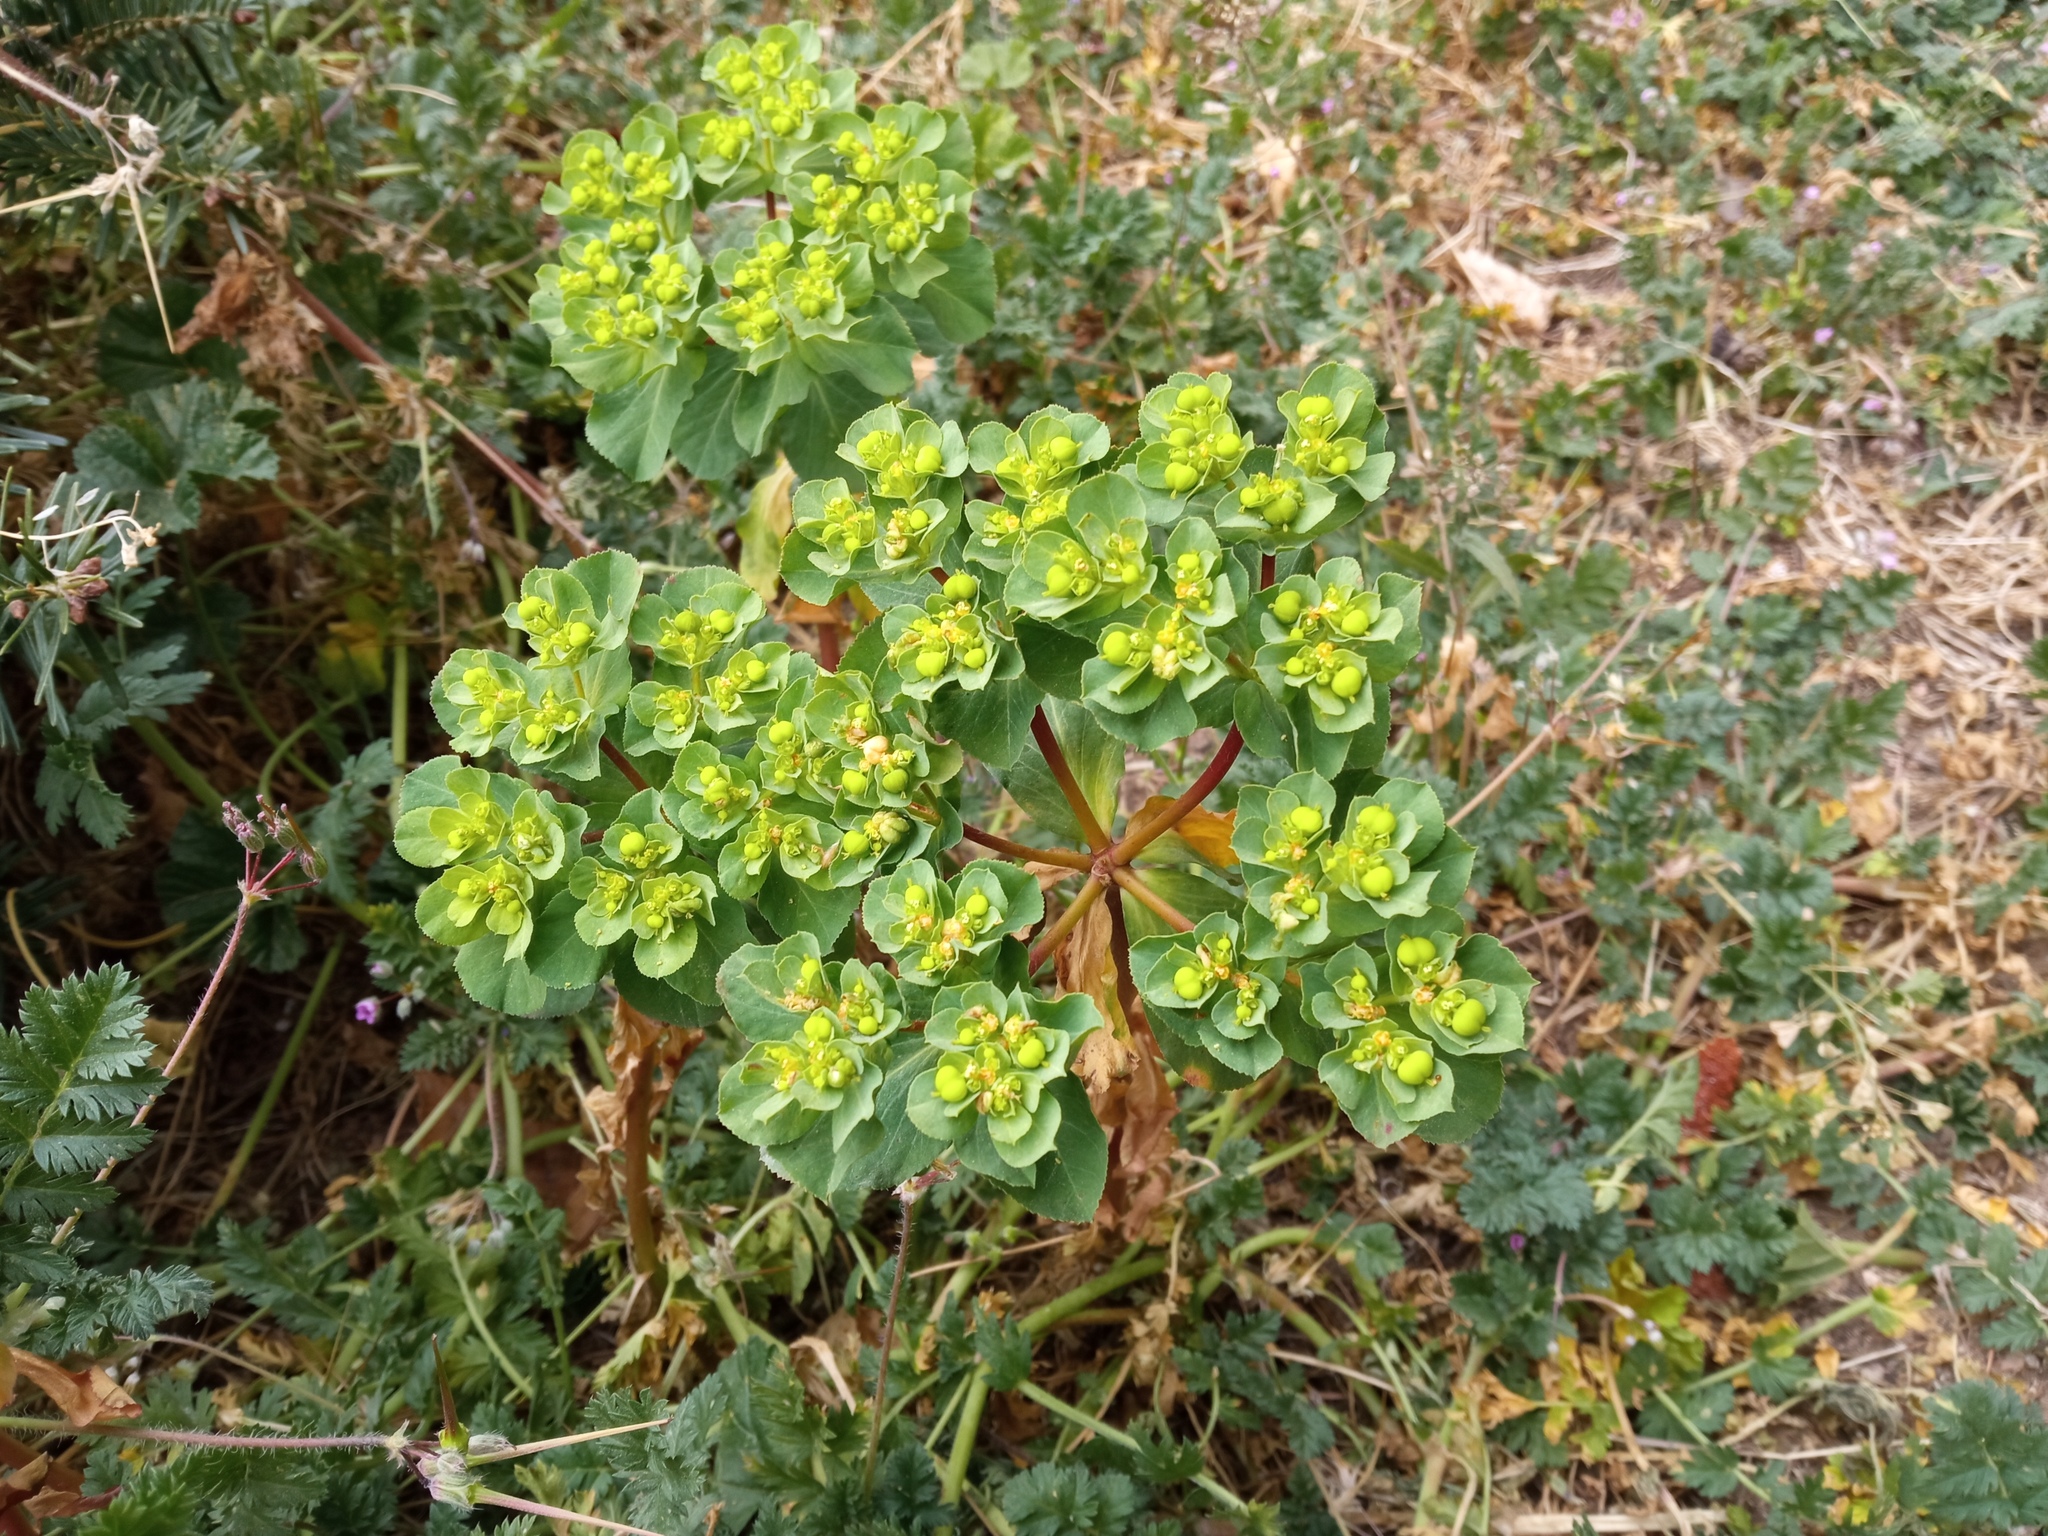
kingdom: Plantae
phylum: Tracheophyta
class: Magnoliopsida
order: Malpighiales
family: Euphorbiaceae
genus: Euphorbia
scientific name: Euphorbia helioscopia
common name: Sun spurge
